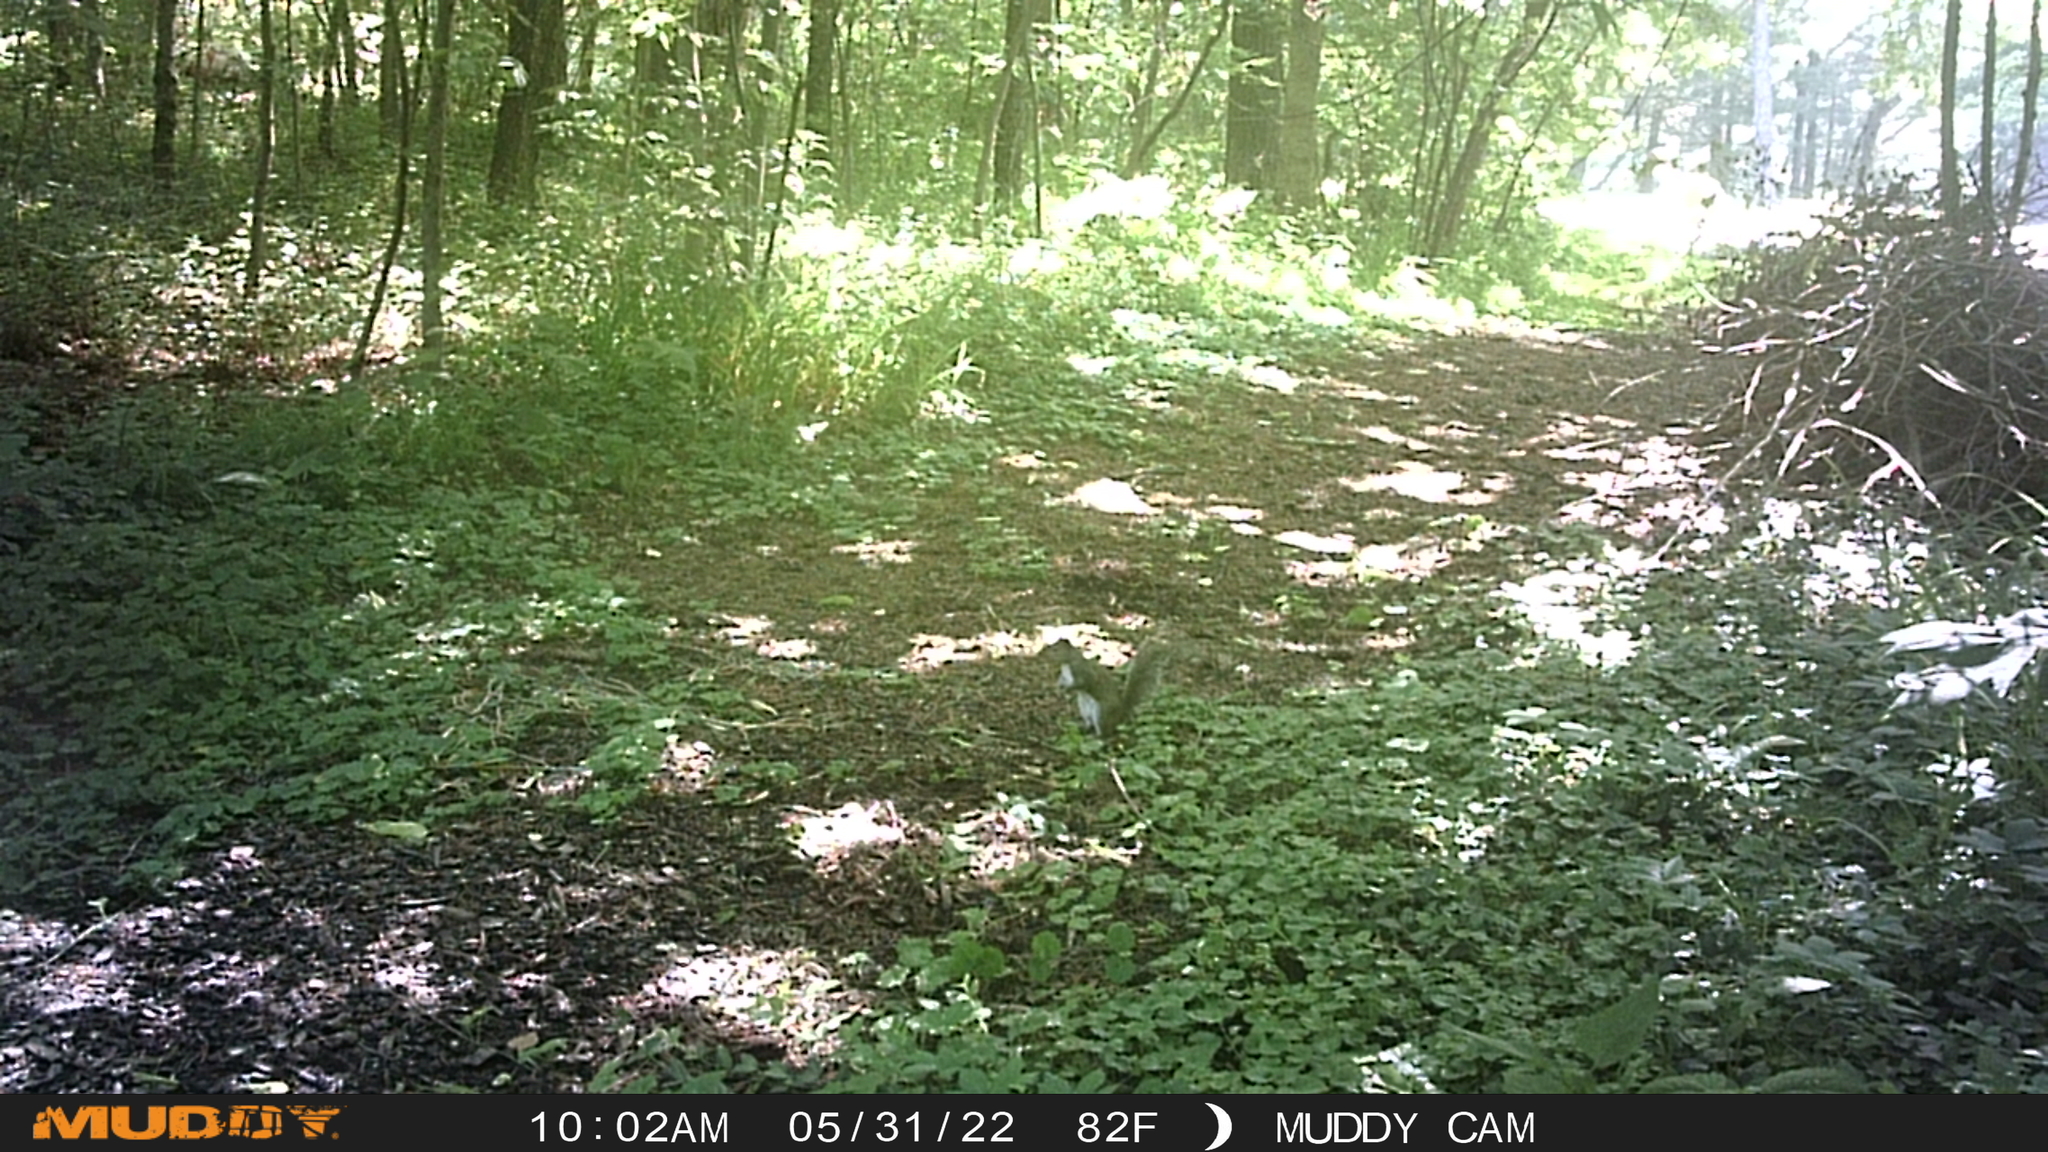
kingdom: Animalia
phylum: Chordata
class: Mammalia
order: Rodentia
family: Sciuridae
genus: Sciurus
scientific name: Sciurus carolinensis
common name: Eastern gray squirrel
